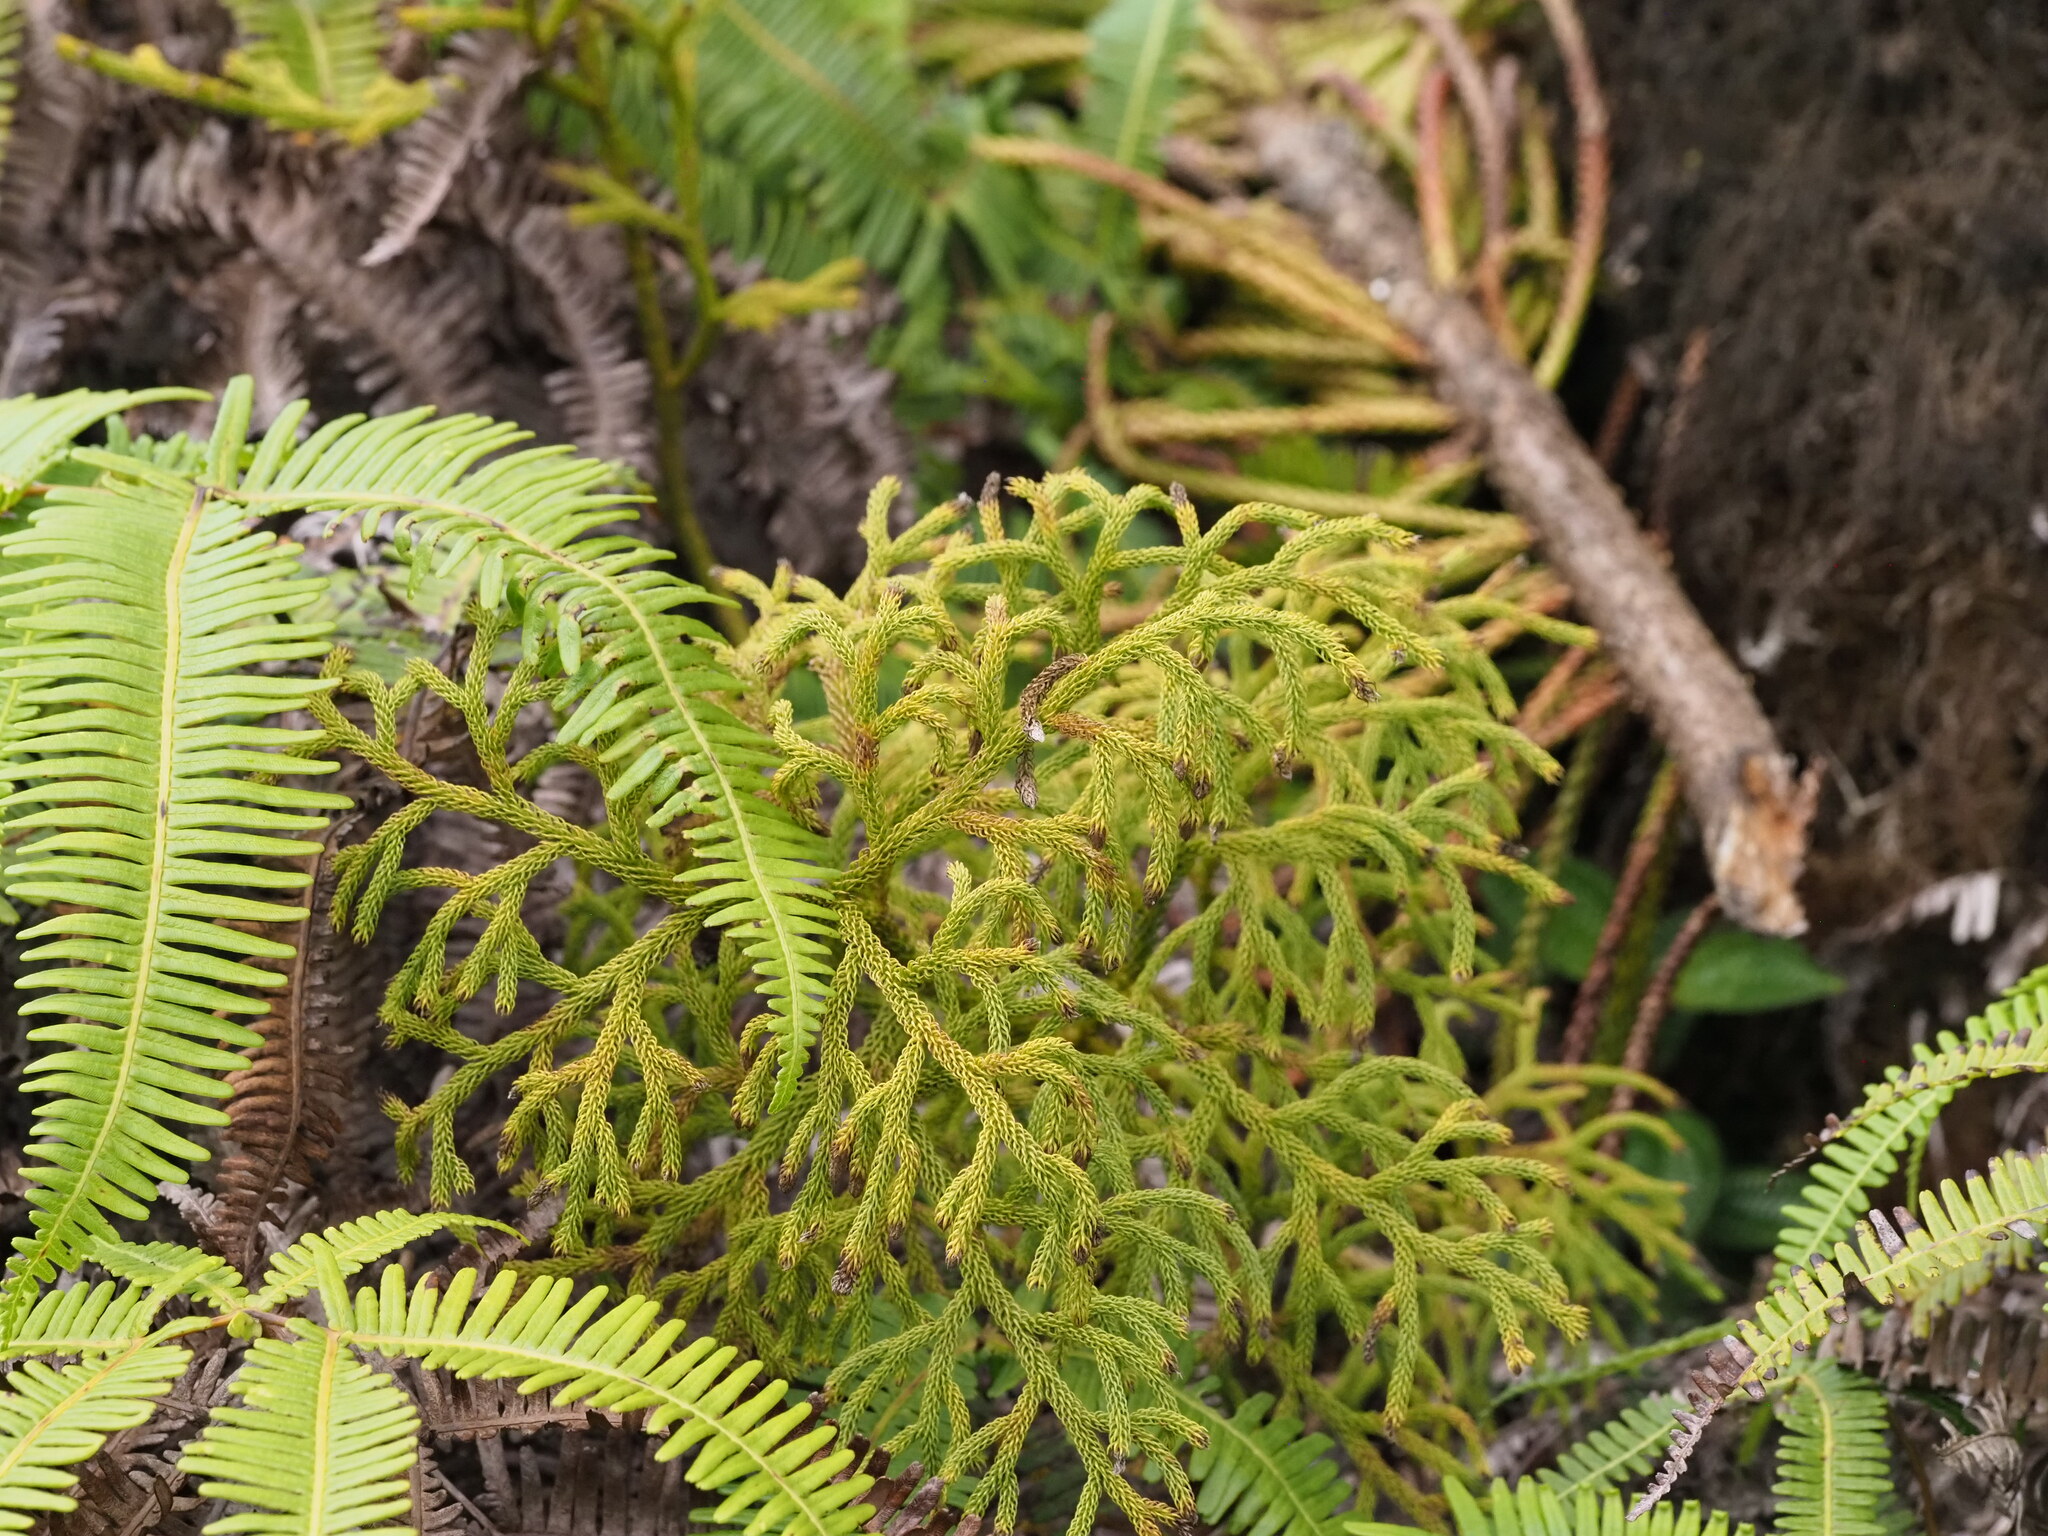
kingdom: Plantae
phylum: Tracheophyta
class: Lycopodiopsida
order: Lycopodiales
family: Lycopodiaceae
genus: Palhinhaea
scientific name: Palhinhaea cernua
